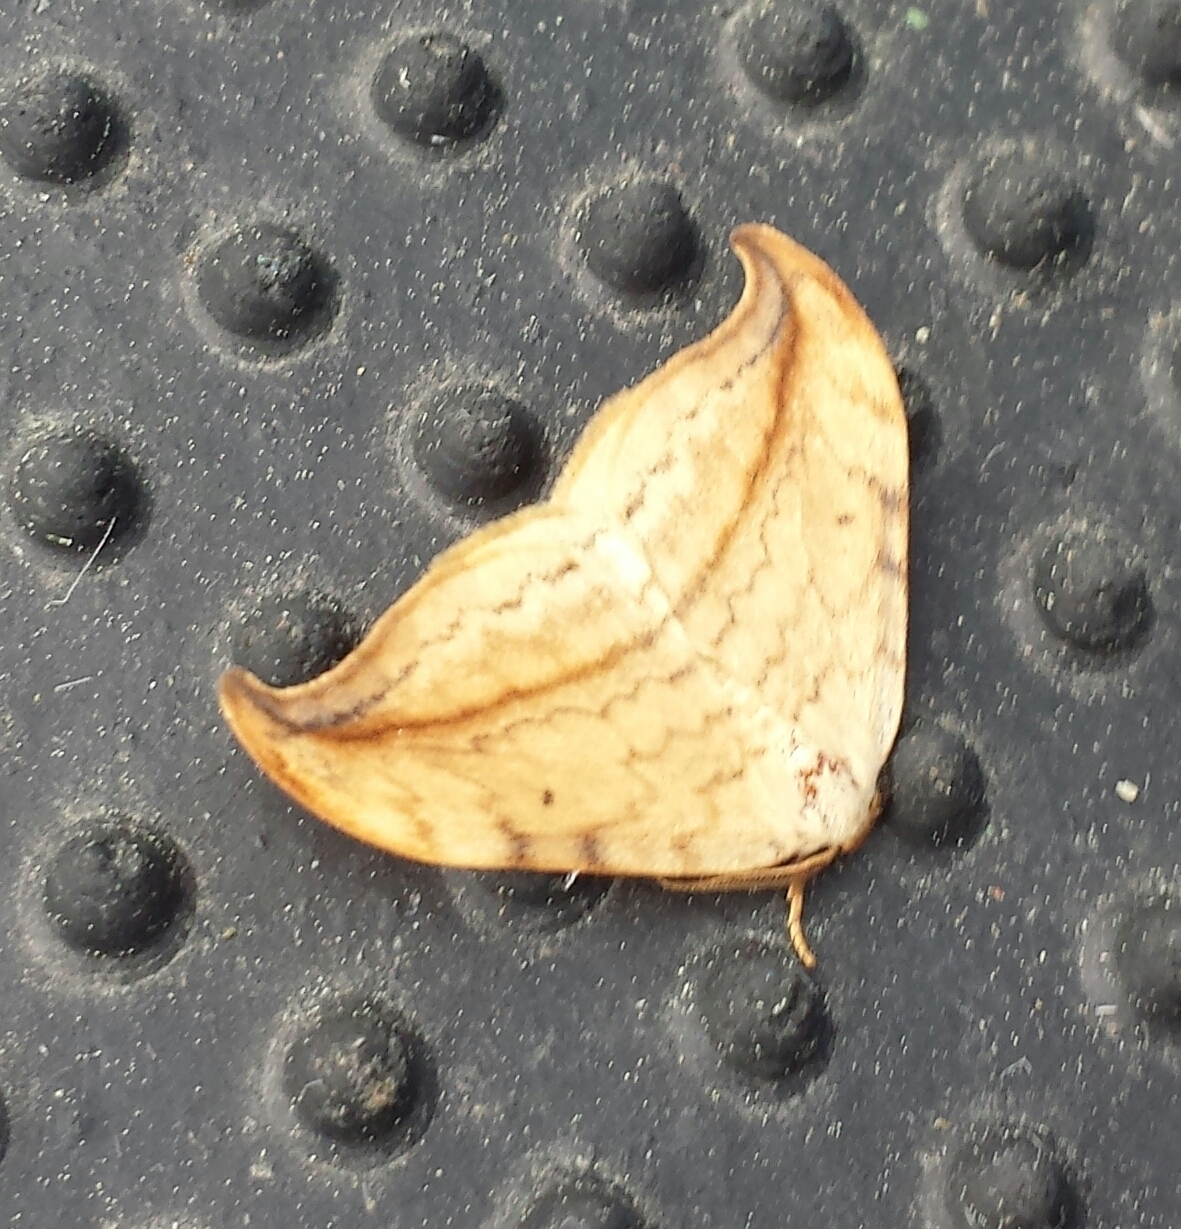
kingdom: Animalia
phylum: Arthropoda
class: Insecta
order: Lepidoptera
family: Drepanidae
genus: Drepana
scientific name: Drepana arcuata
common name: Arched hooktip moth
